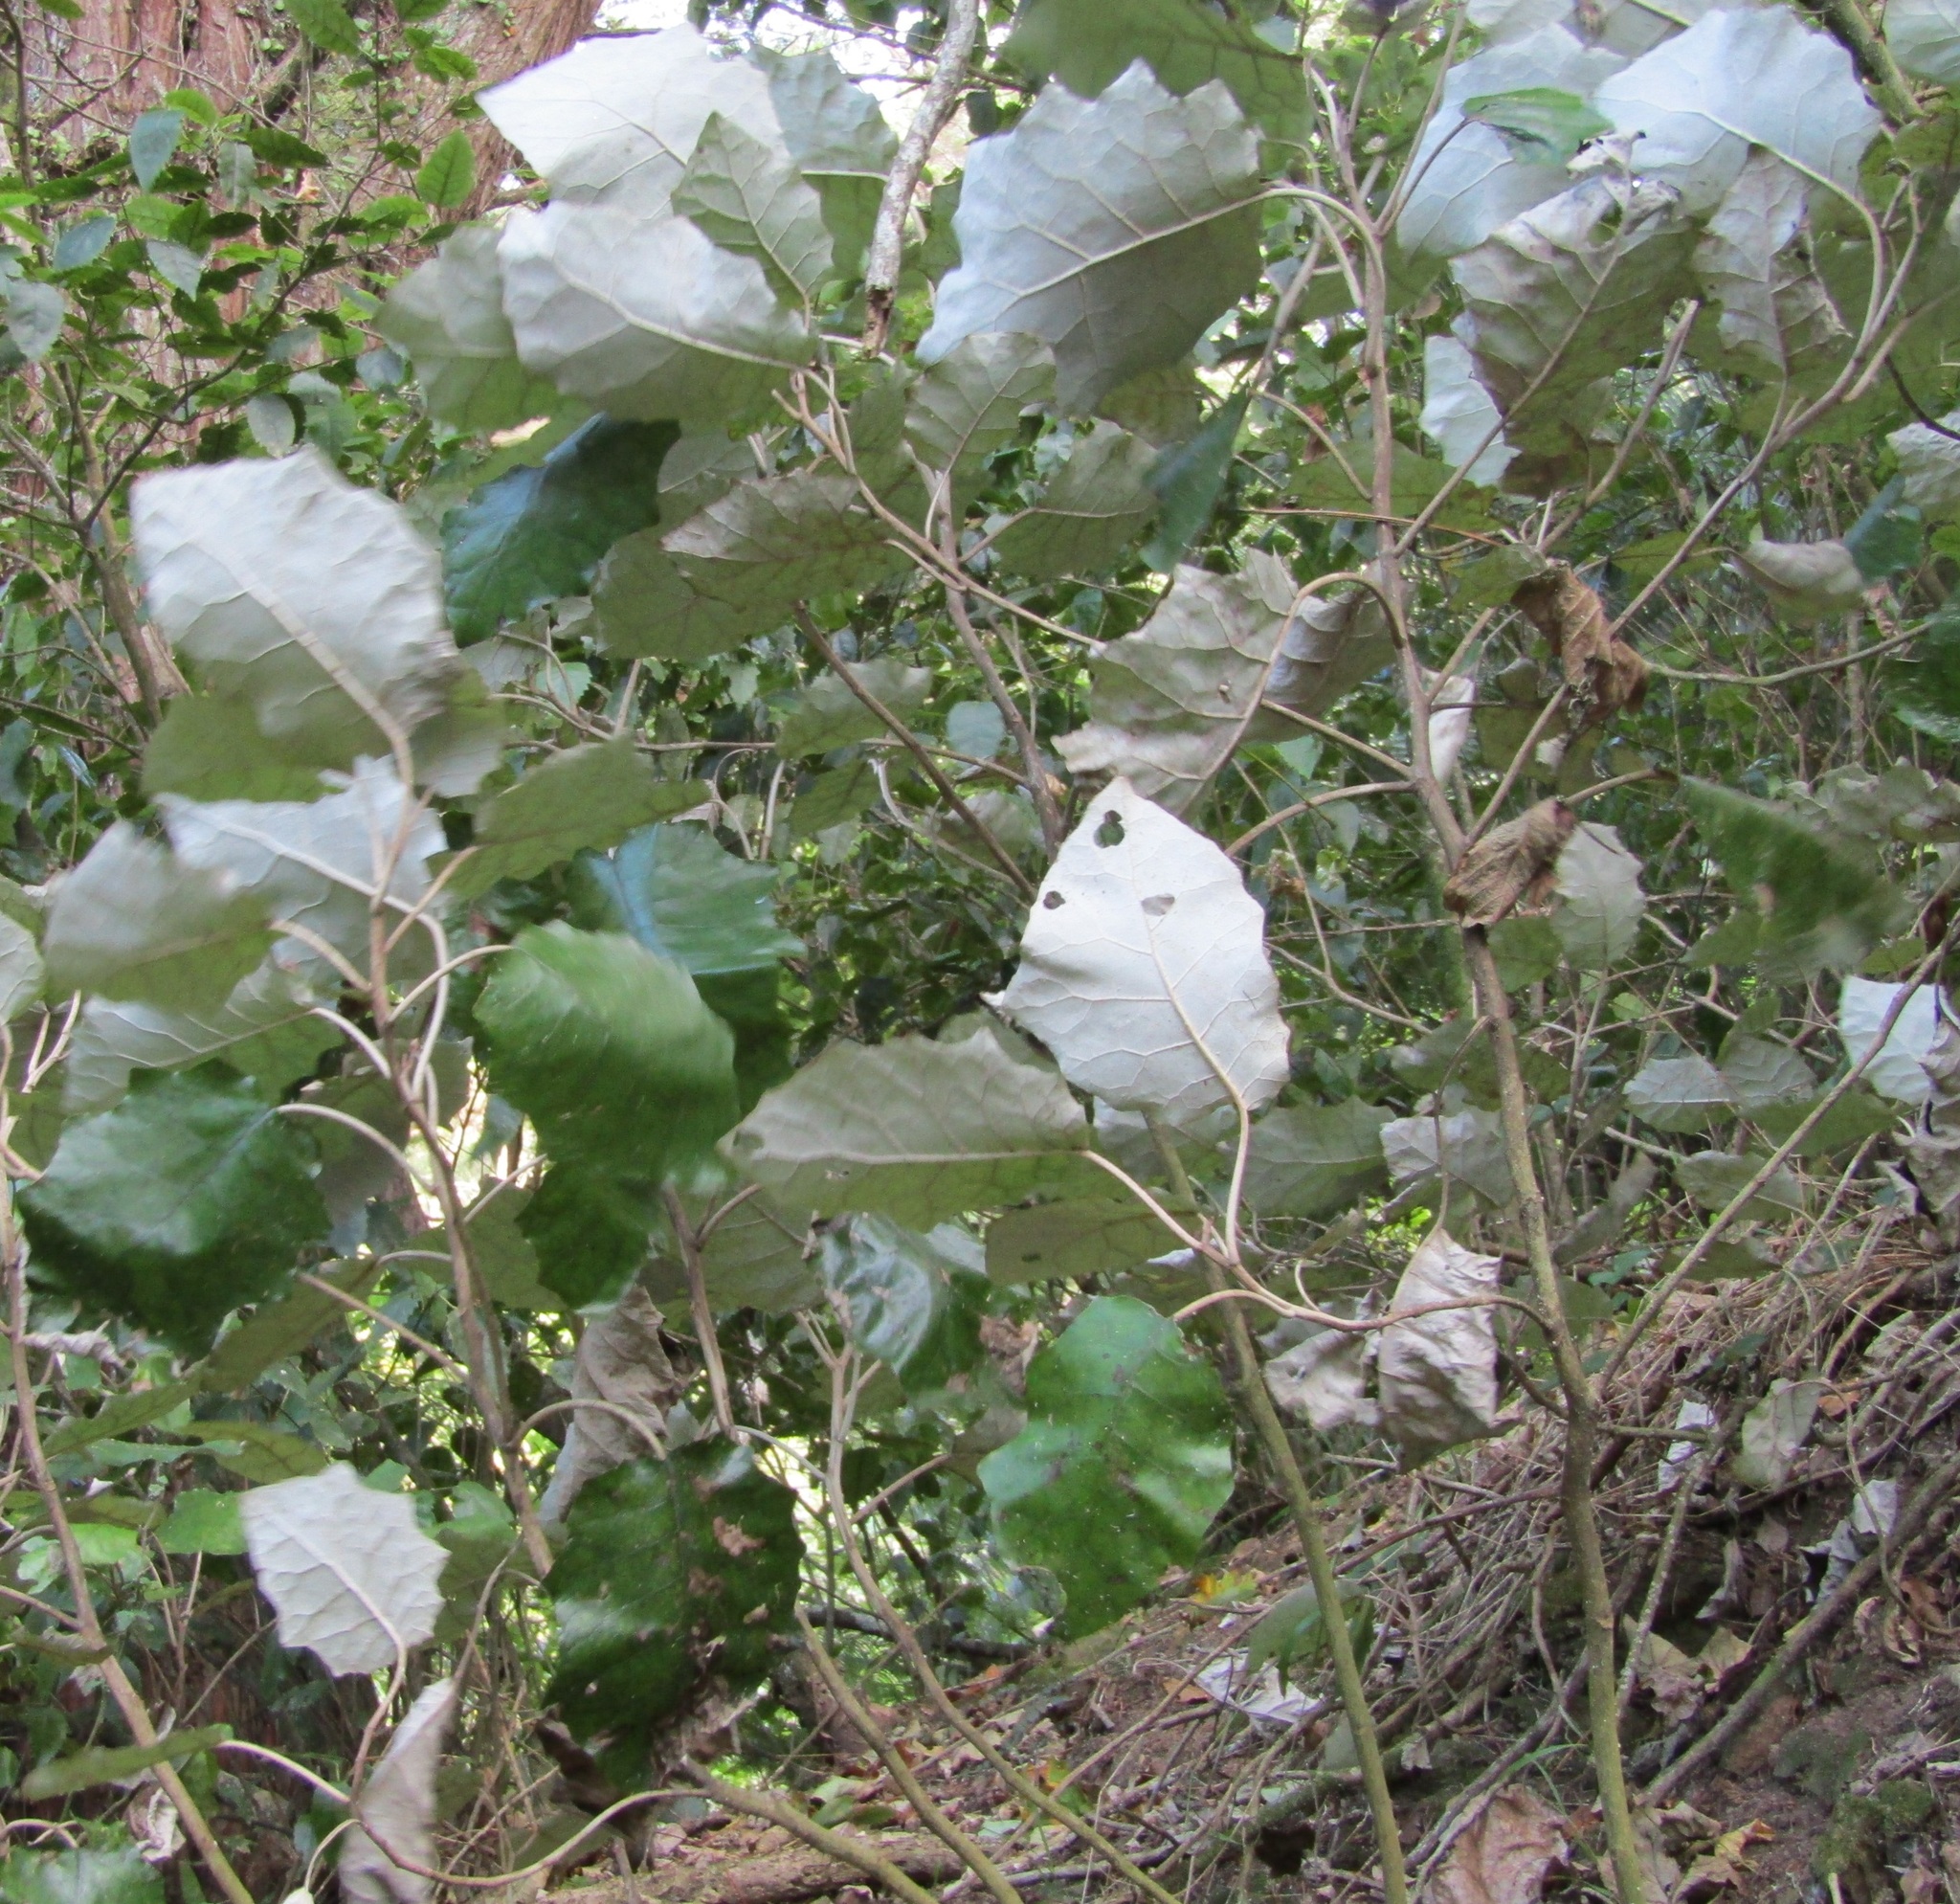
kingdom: Plantae
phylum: Tracheophyta
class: Magnoliopsida
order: Asterales
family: Asteraceae
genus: Brachyglottis
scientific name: Brachyglottis repanda
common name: Hedge ragwort
